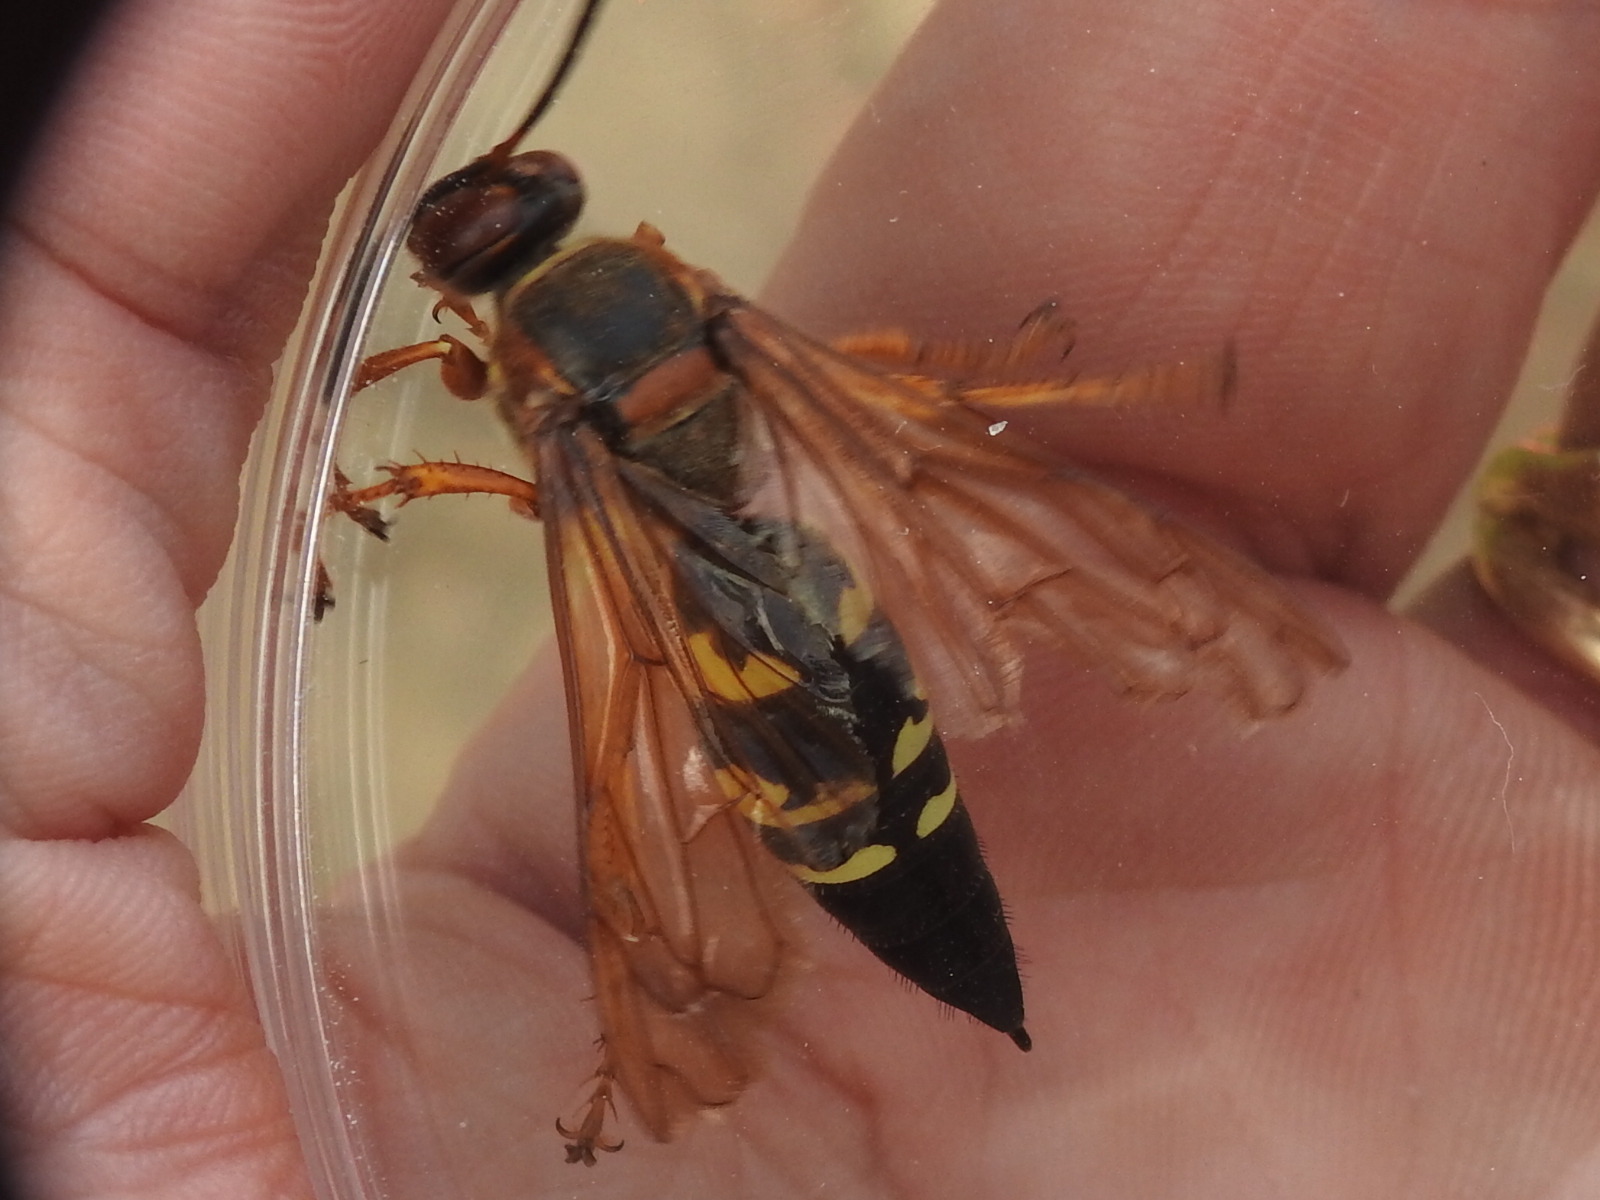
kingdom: Animalia
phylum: Arthropoda
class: Insecta
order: Hymenoptera
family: Crabronidae
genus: Sphecius
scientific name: Sphecius speciosus
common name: Cicada killer
